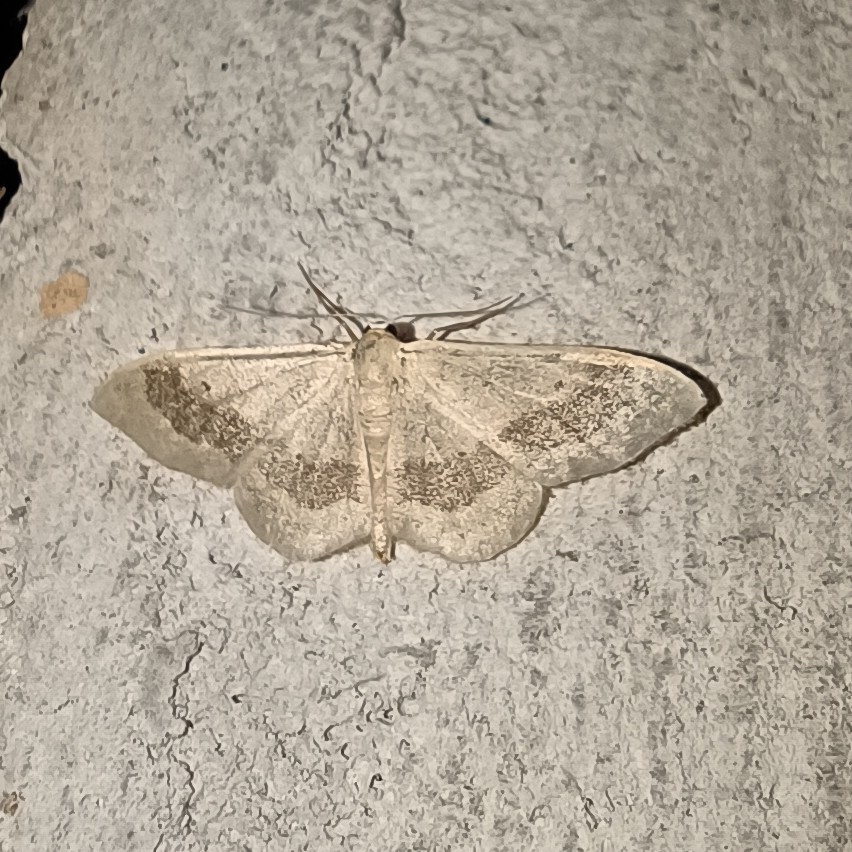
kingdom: Animalia
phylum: Arthropoda
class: Insecta
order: Lepidoptera
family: Geometridae
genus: Idaea
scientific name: Idaea aversata
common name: Riband wave
